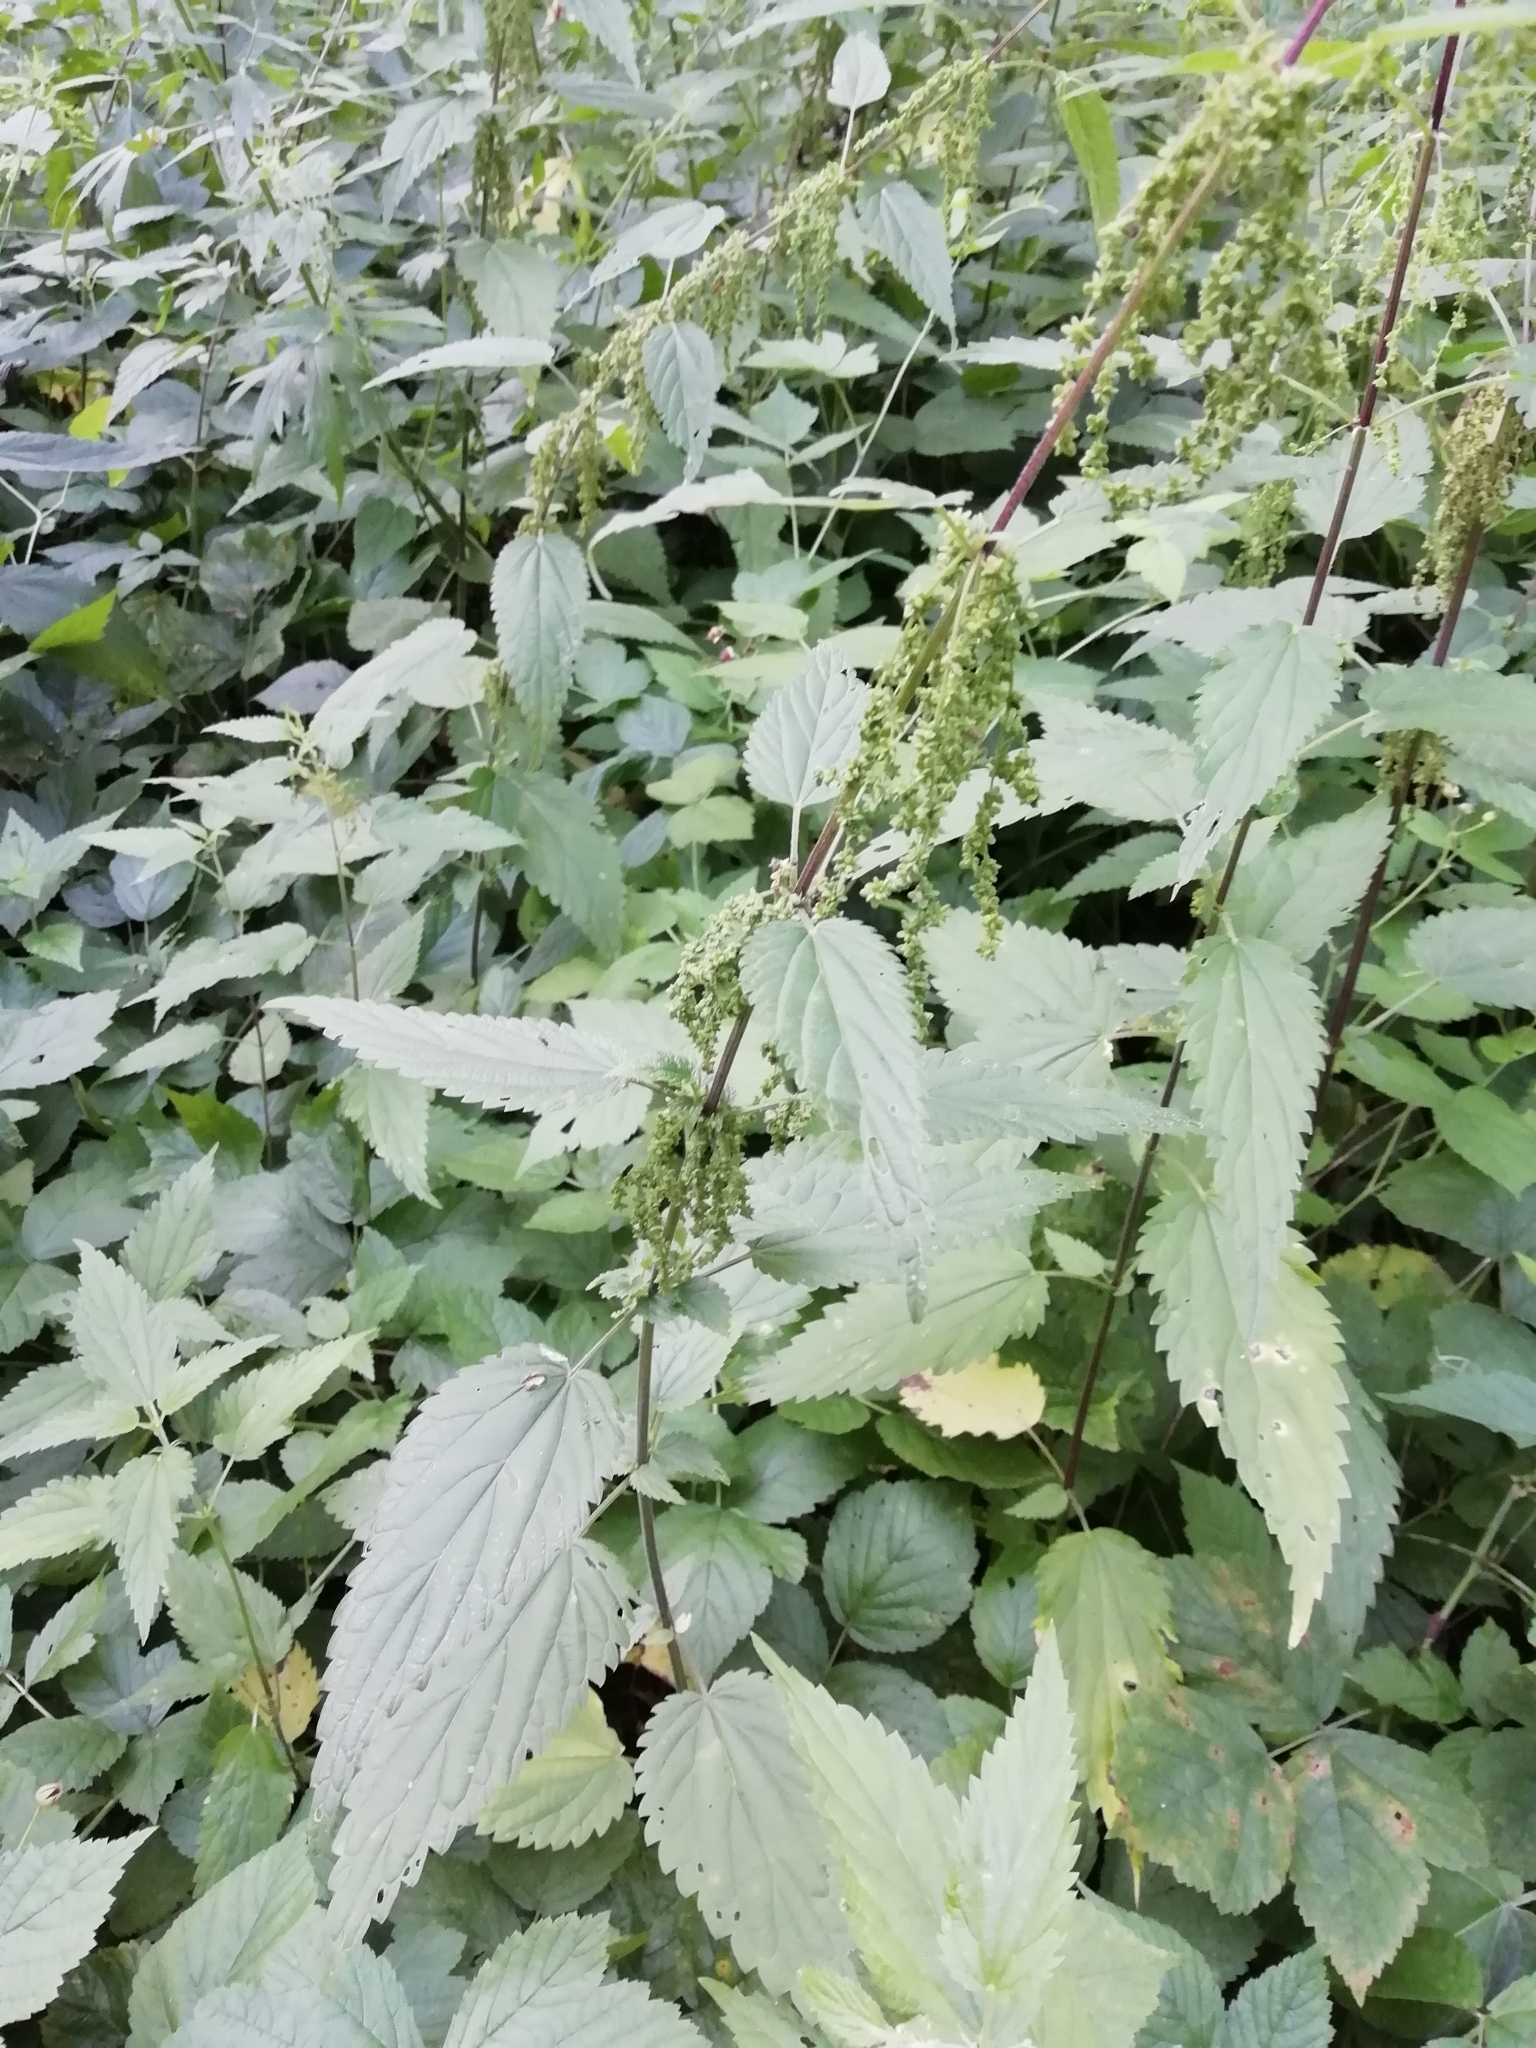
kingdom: Plantae
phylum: Tracheophyta
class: Magnoliopsida
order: Rosales
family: Urticaceae
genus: Urtica
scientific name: Urtica dioica
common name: Common nettle
